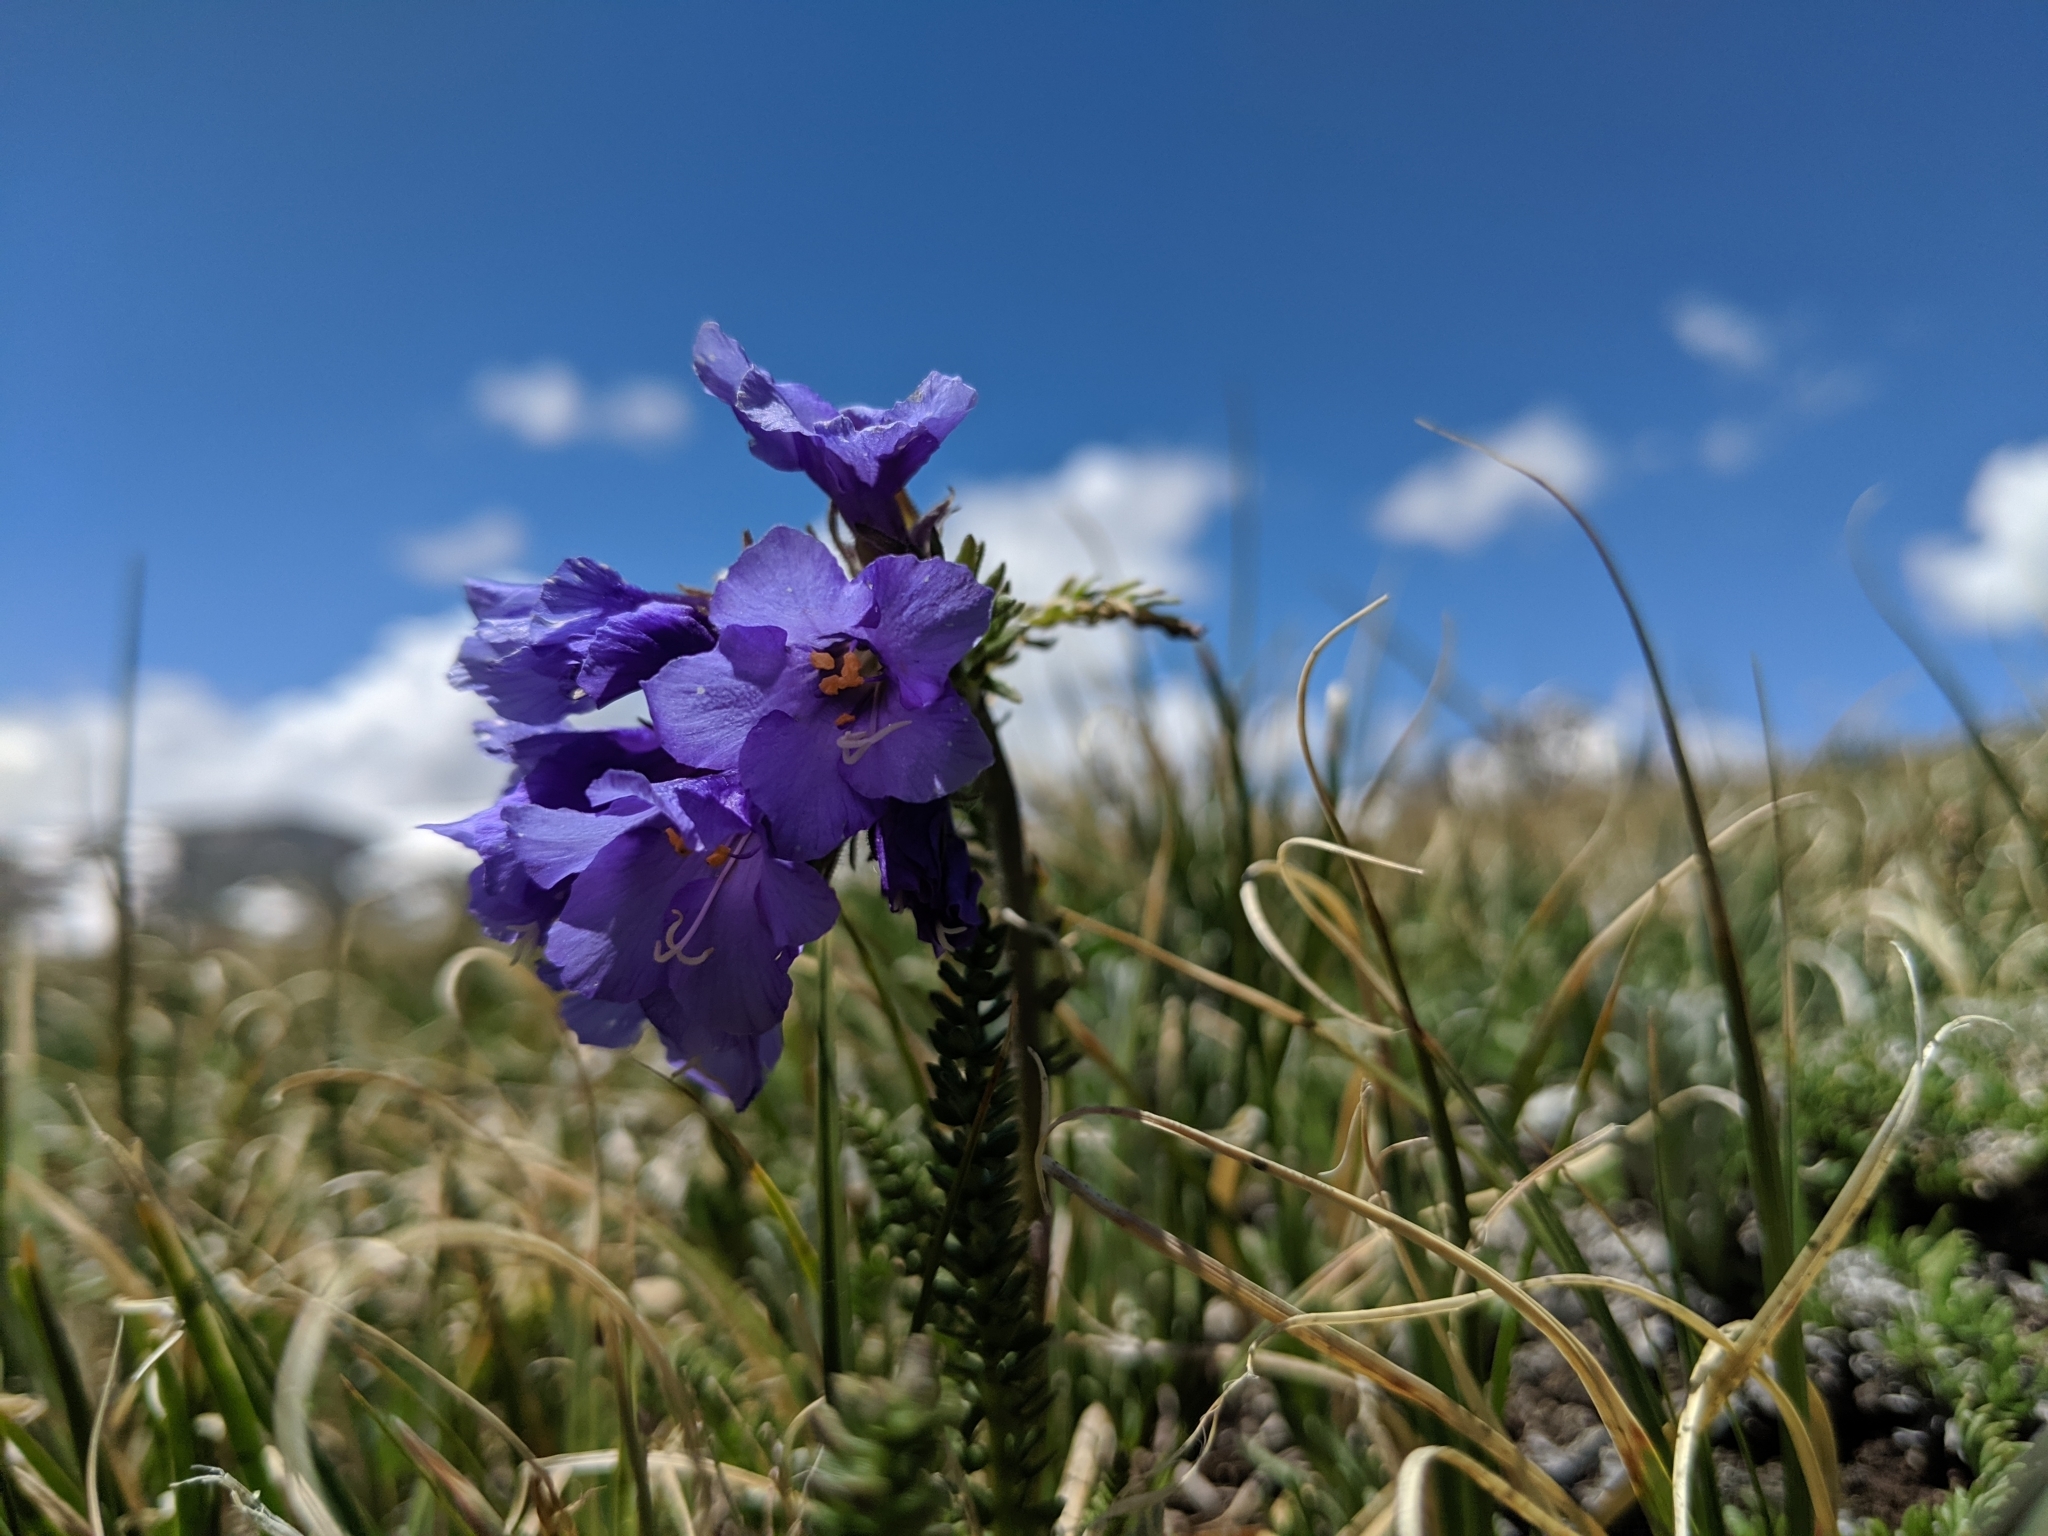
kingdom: Plantae
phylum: Tracheophyta
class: Magnoliopsida
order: Ericales
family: Polemoniaceae
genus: Polemonium
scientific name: Polemonium viscosum
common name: Skunk jacob's-ladder
